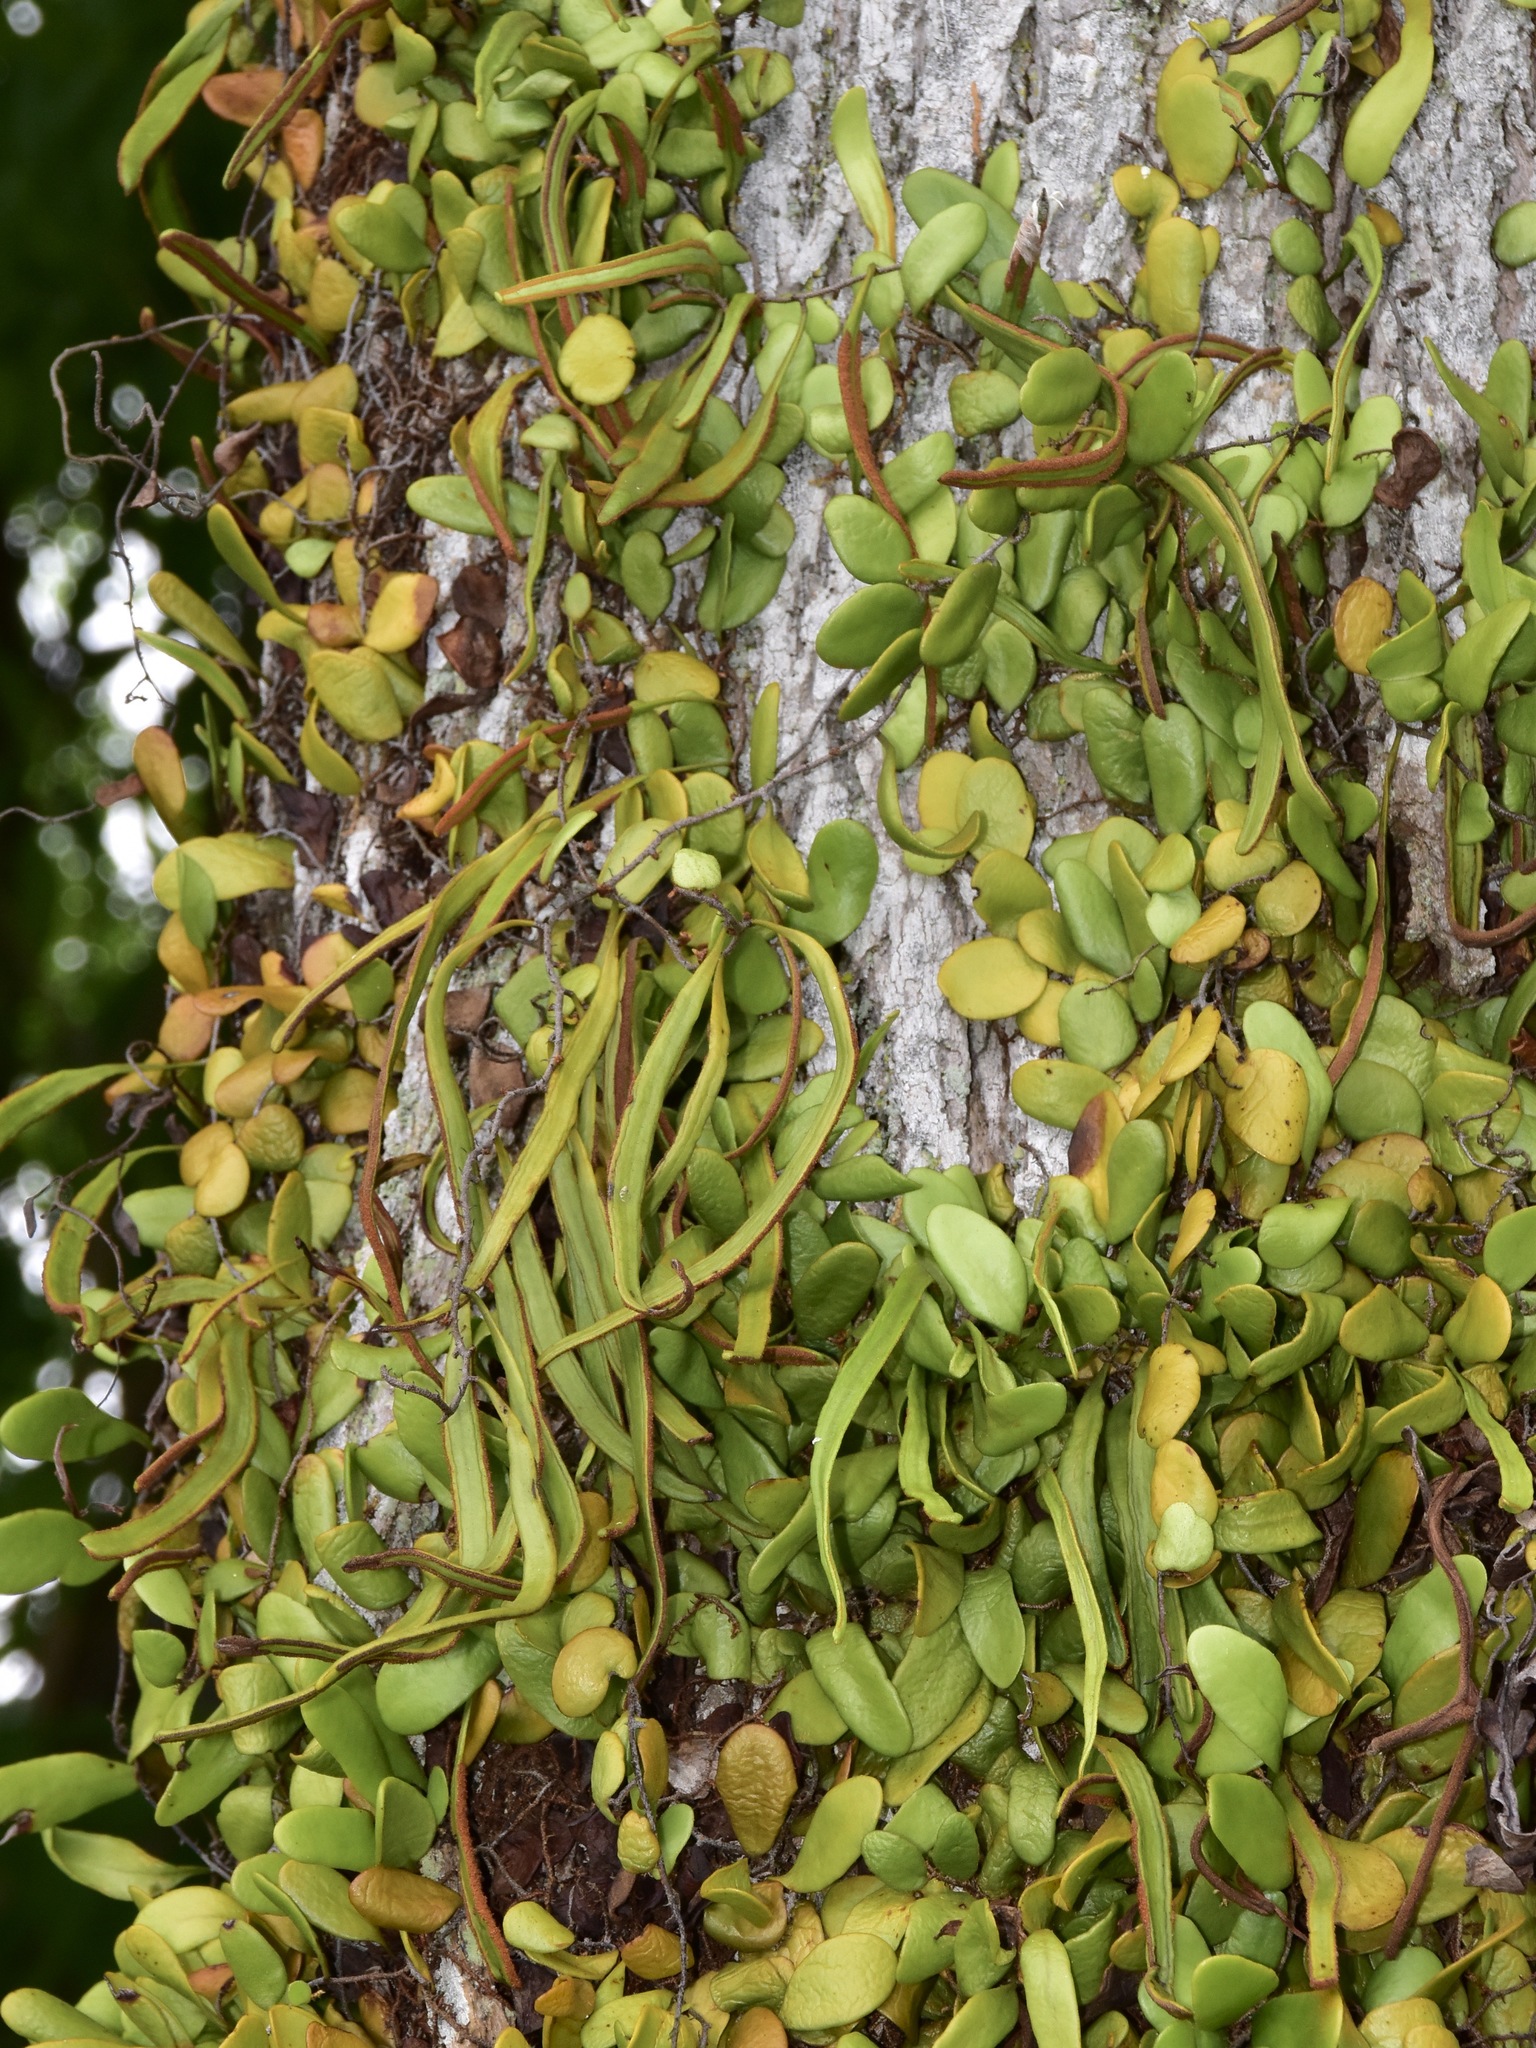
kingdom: Plantae
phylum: Tracheophyta
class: Polypodiopsida
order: Polypodiales
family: Polypodiaceae
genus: Pyrrosia
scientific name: Pyrrosia piloselloides
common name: Epiphytic creeping fern
